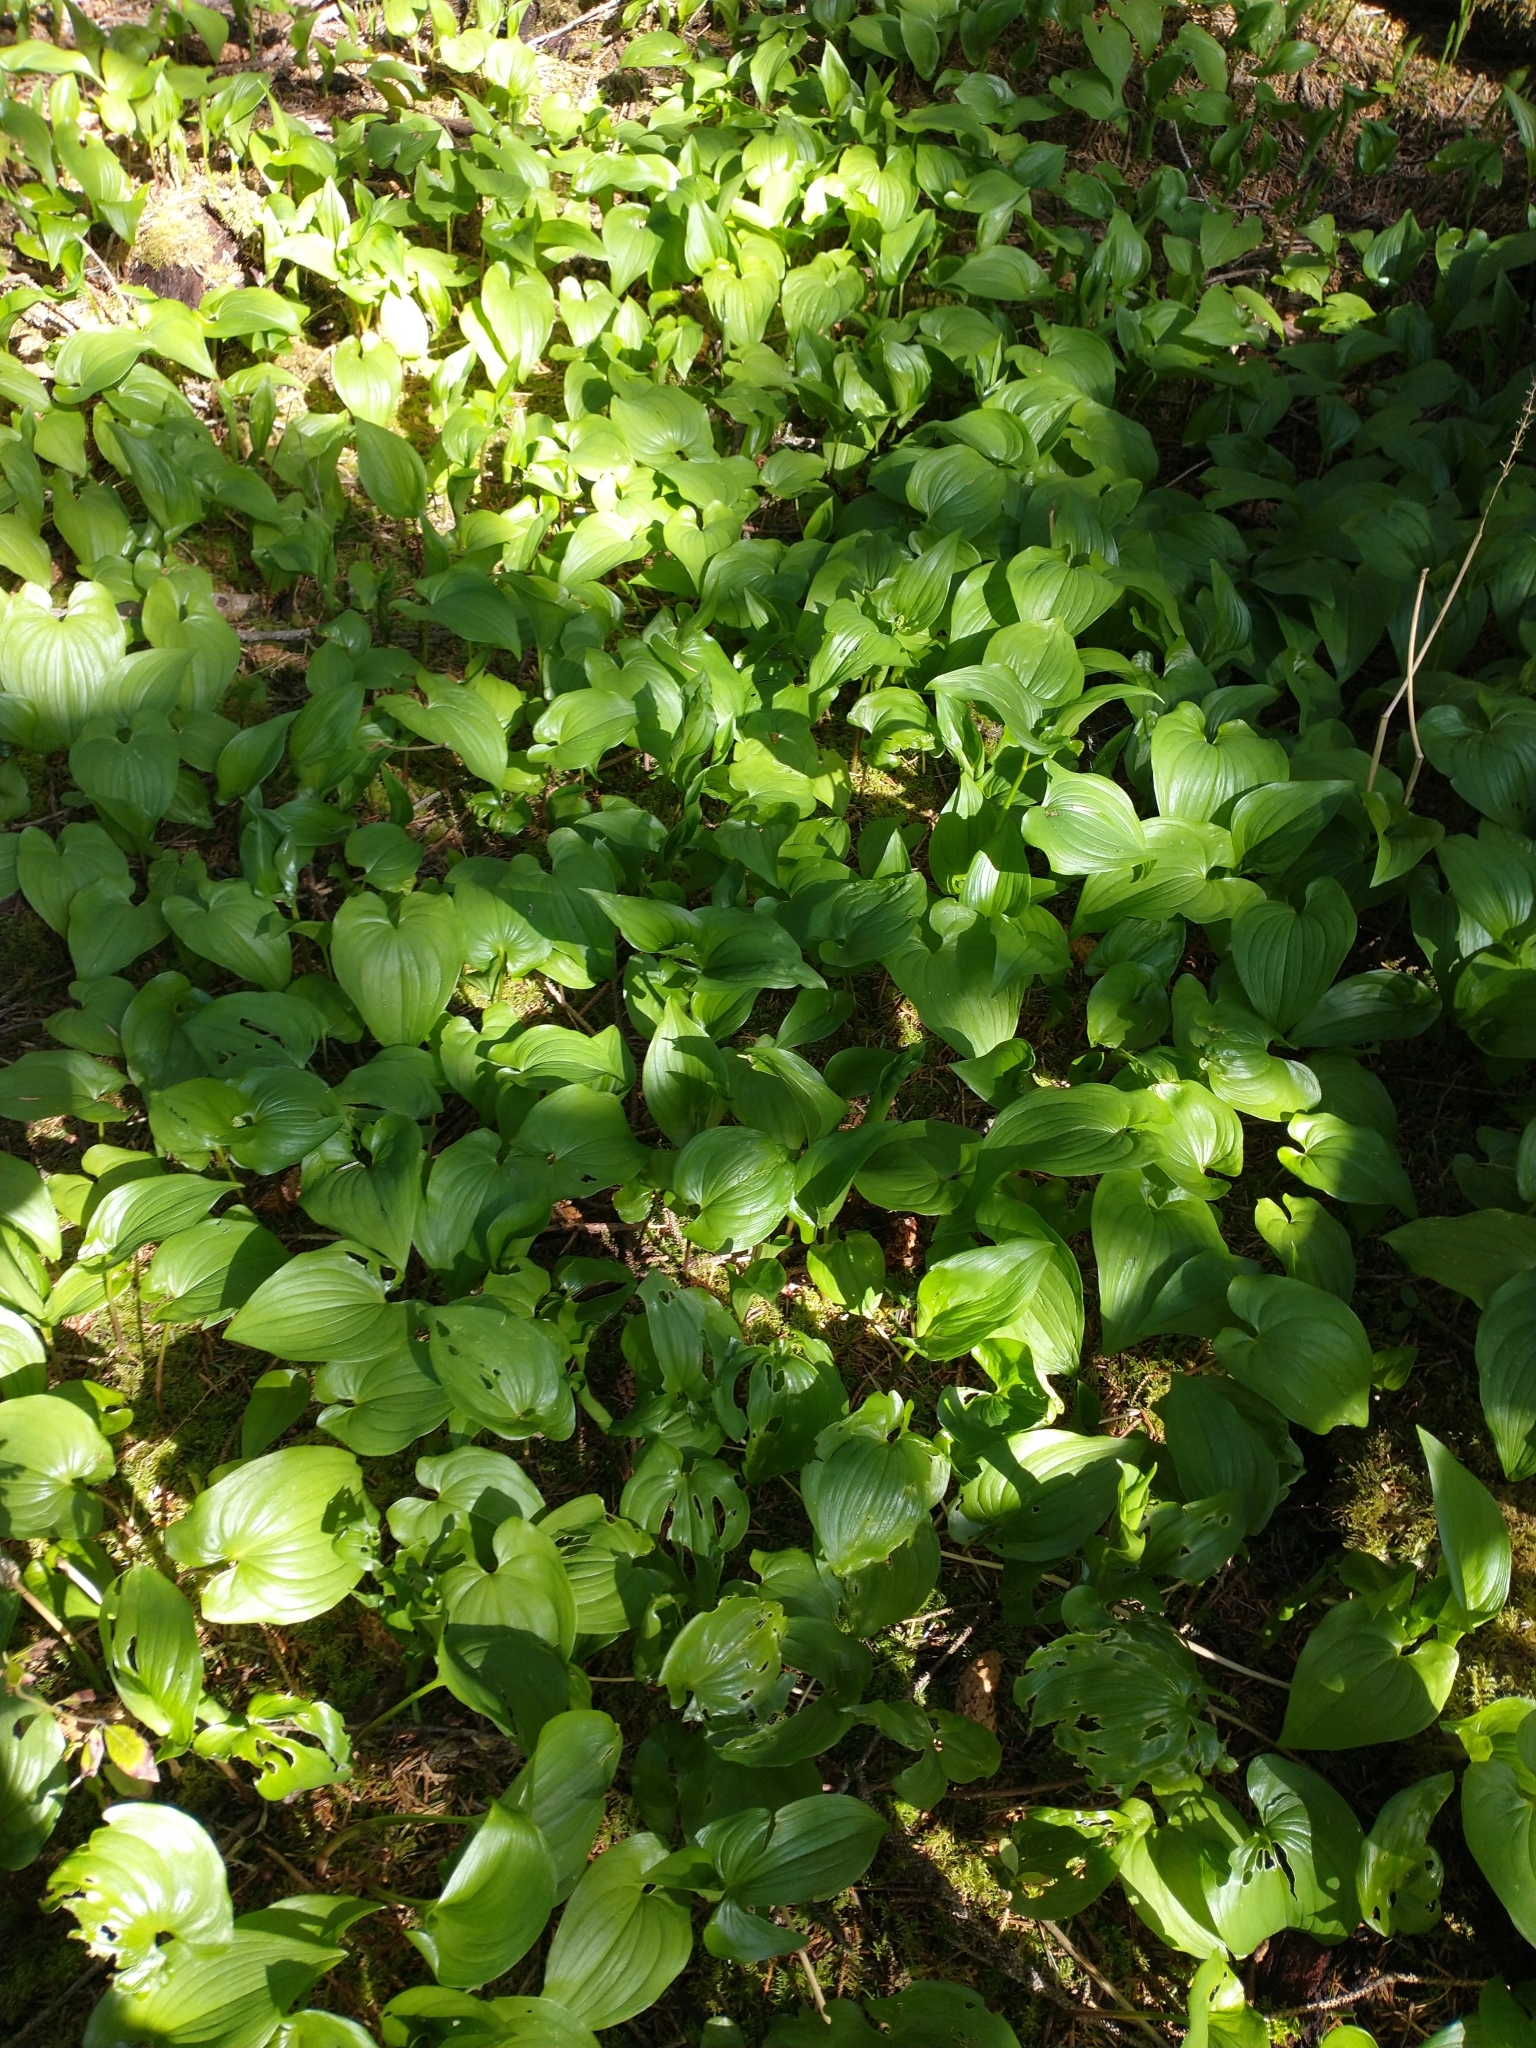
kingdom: Plantae
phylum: Tracheophyta
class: Liliopsida
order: Asparagales
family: Asparagaceae
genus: Maianthemum
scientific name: Maianthemum dilatatum
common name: False lily-of-the-valley
